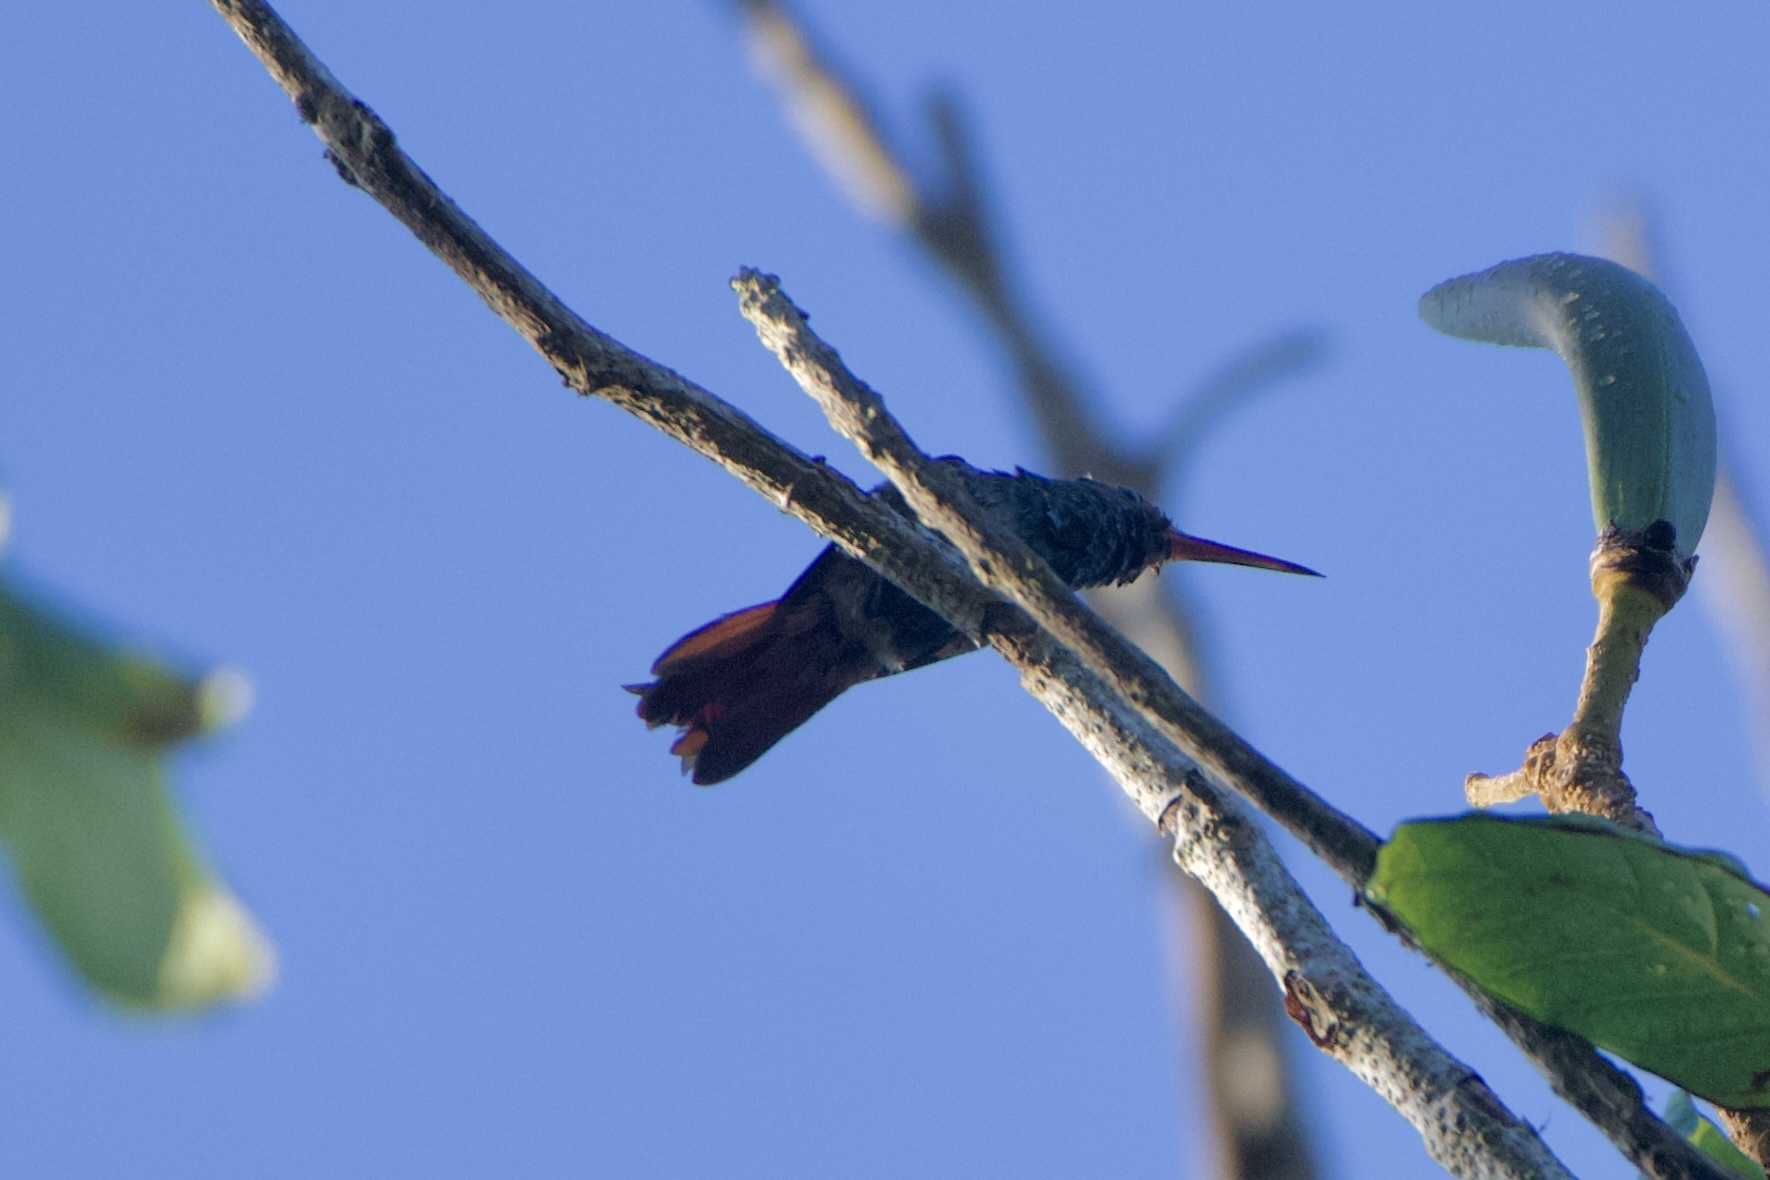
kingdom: Animalia
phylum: Chordata
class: Aves
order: Apodiformes
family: Trochilidae
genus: Amazilia
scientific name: Amazilia tzacatl
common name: Rufous-tailed hummingbird
